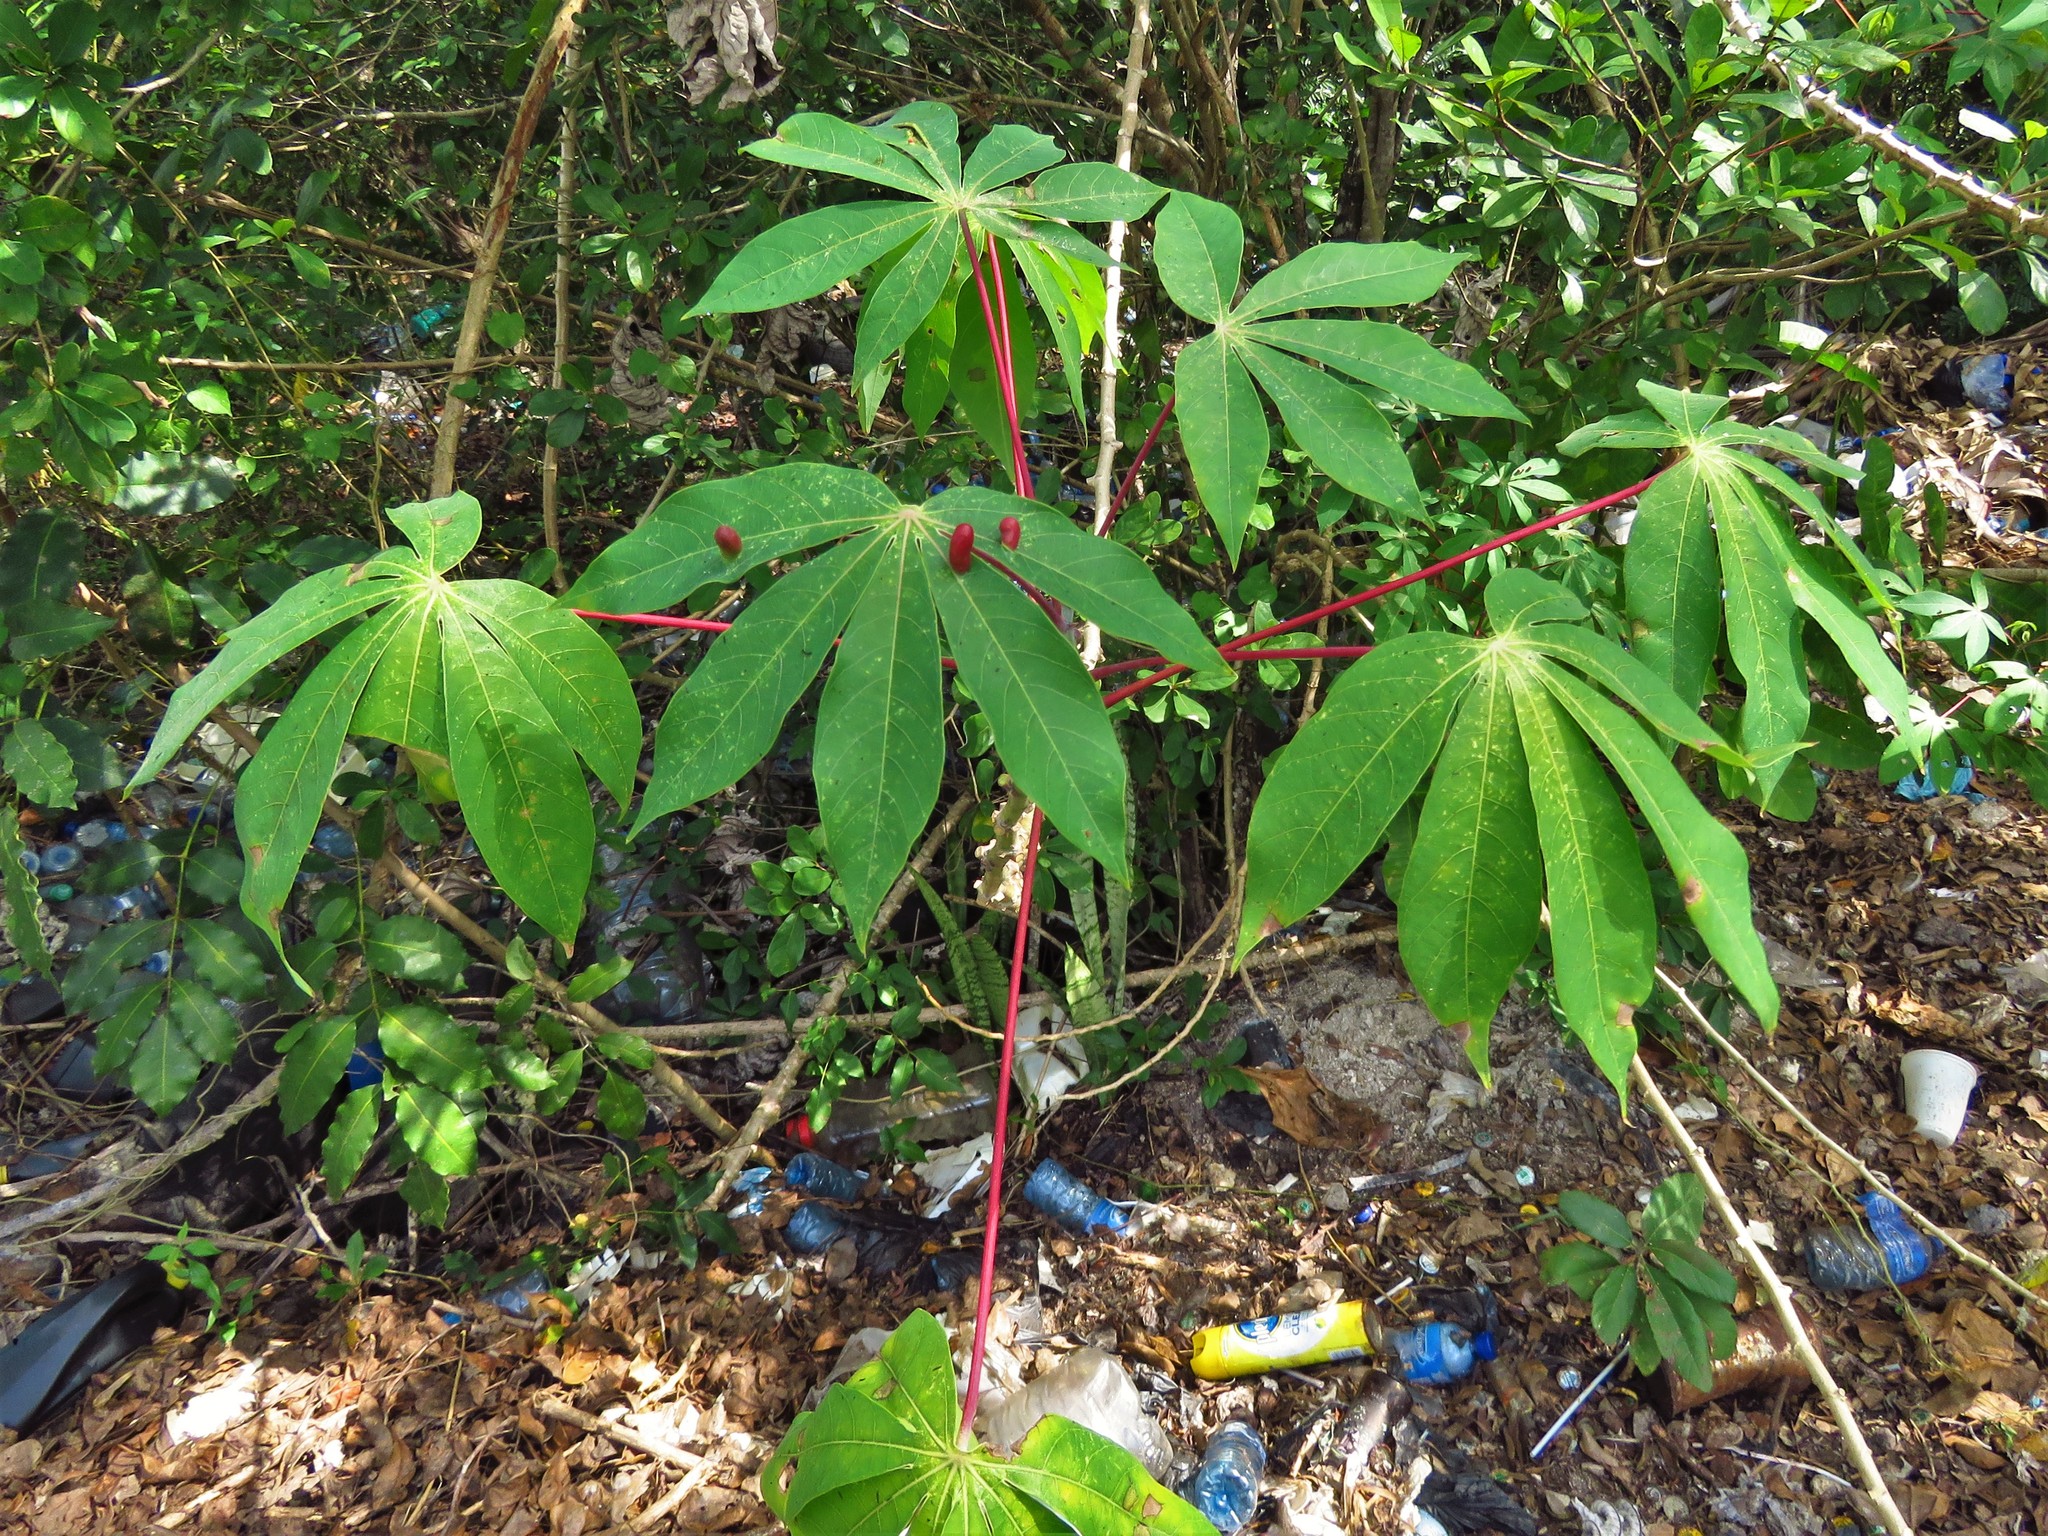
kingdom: Plantae
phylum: Tracheophyta
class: Magnoliopsida
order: Malpighiales
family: Euphorbiaceae
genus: Manihot
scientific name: Manihot esculenta
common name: Cassava
